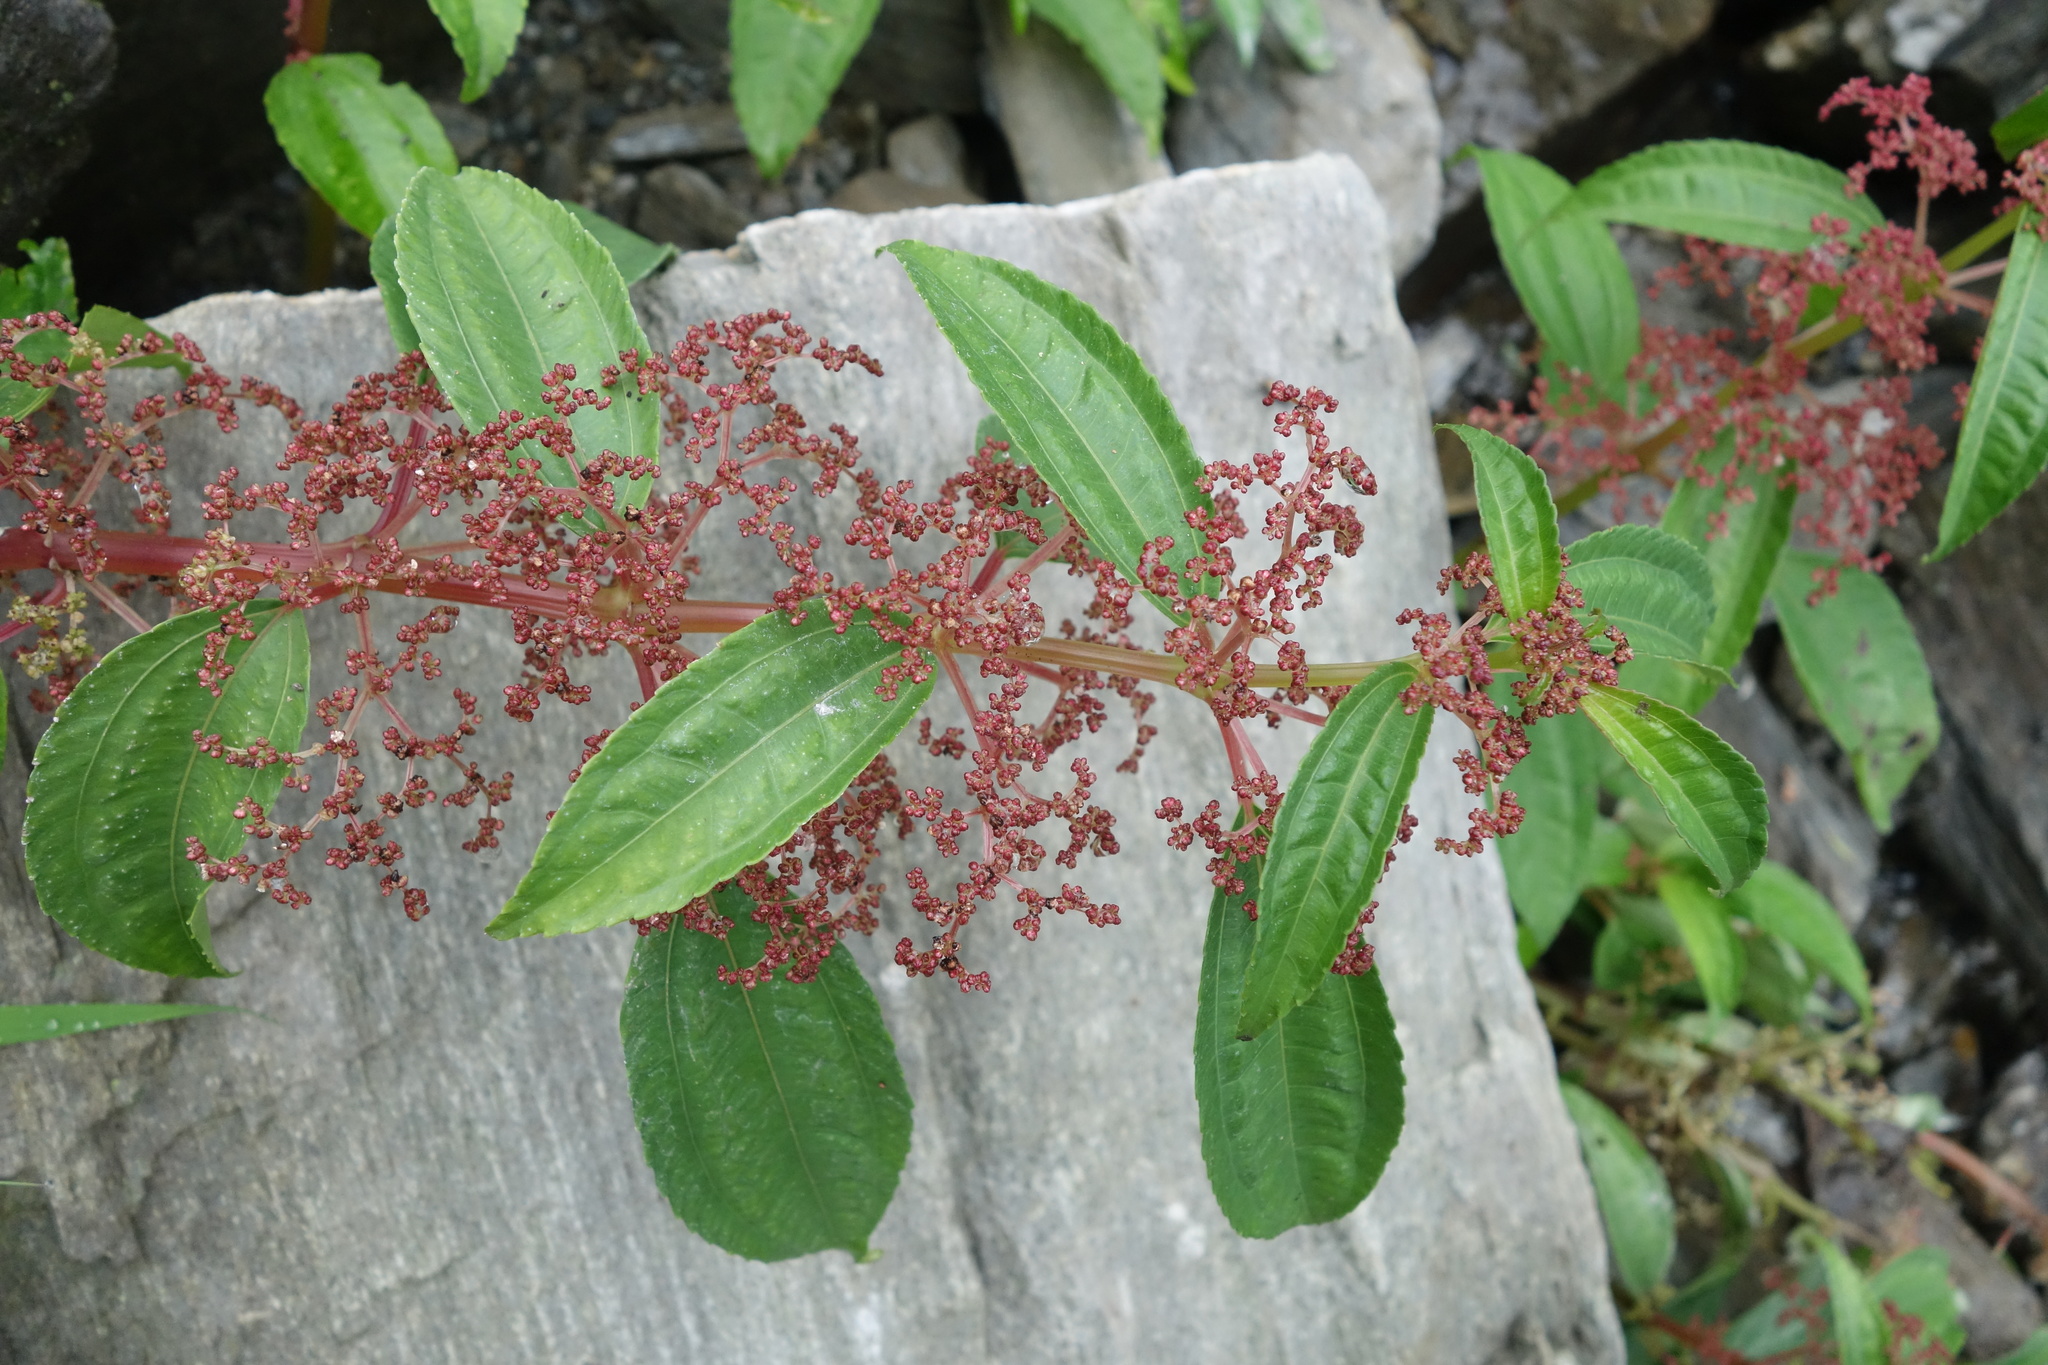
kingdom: Plantae
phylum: Tracheophyta
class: Magnoliopsida
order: Rosales
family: Urticaceae
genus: Pilea
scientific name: Pilea rotundinucula
